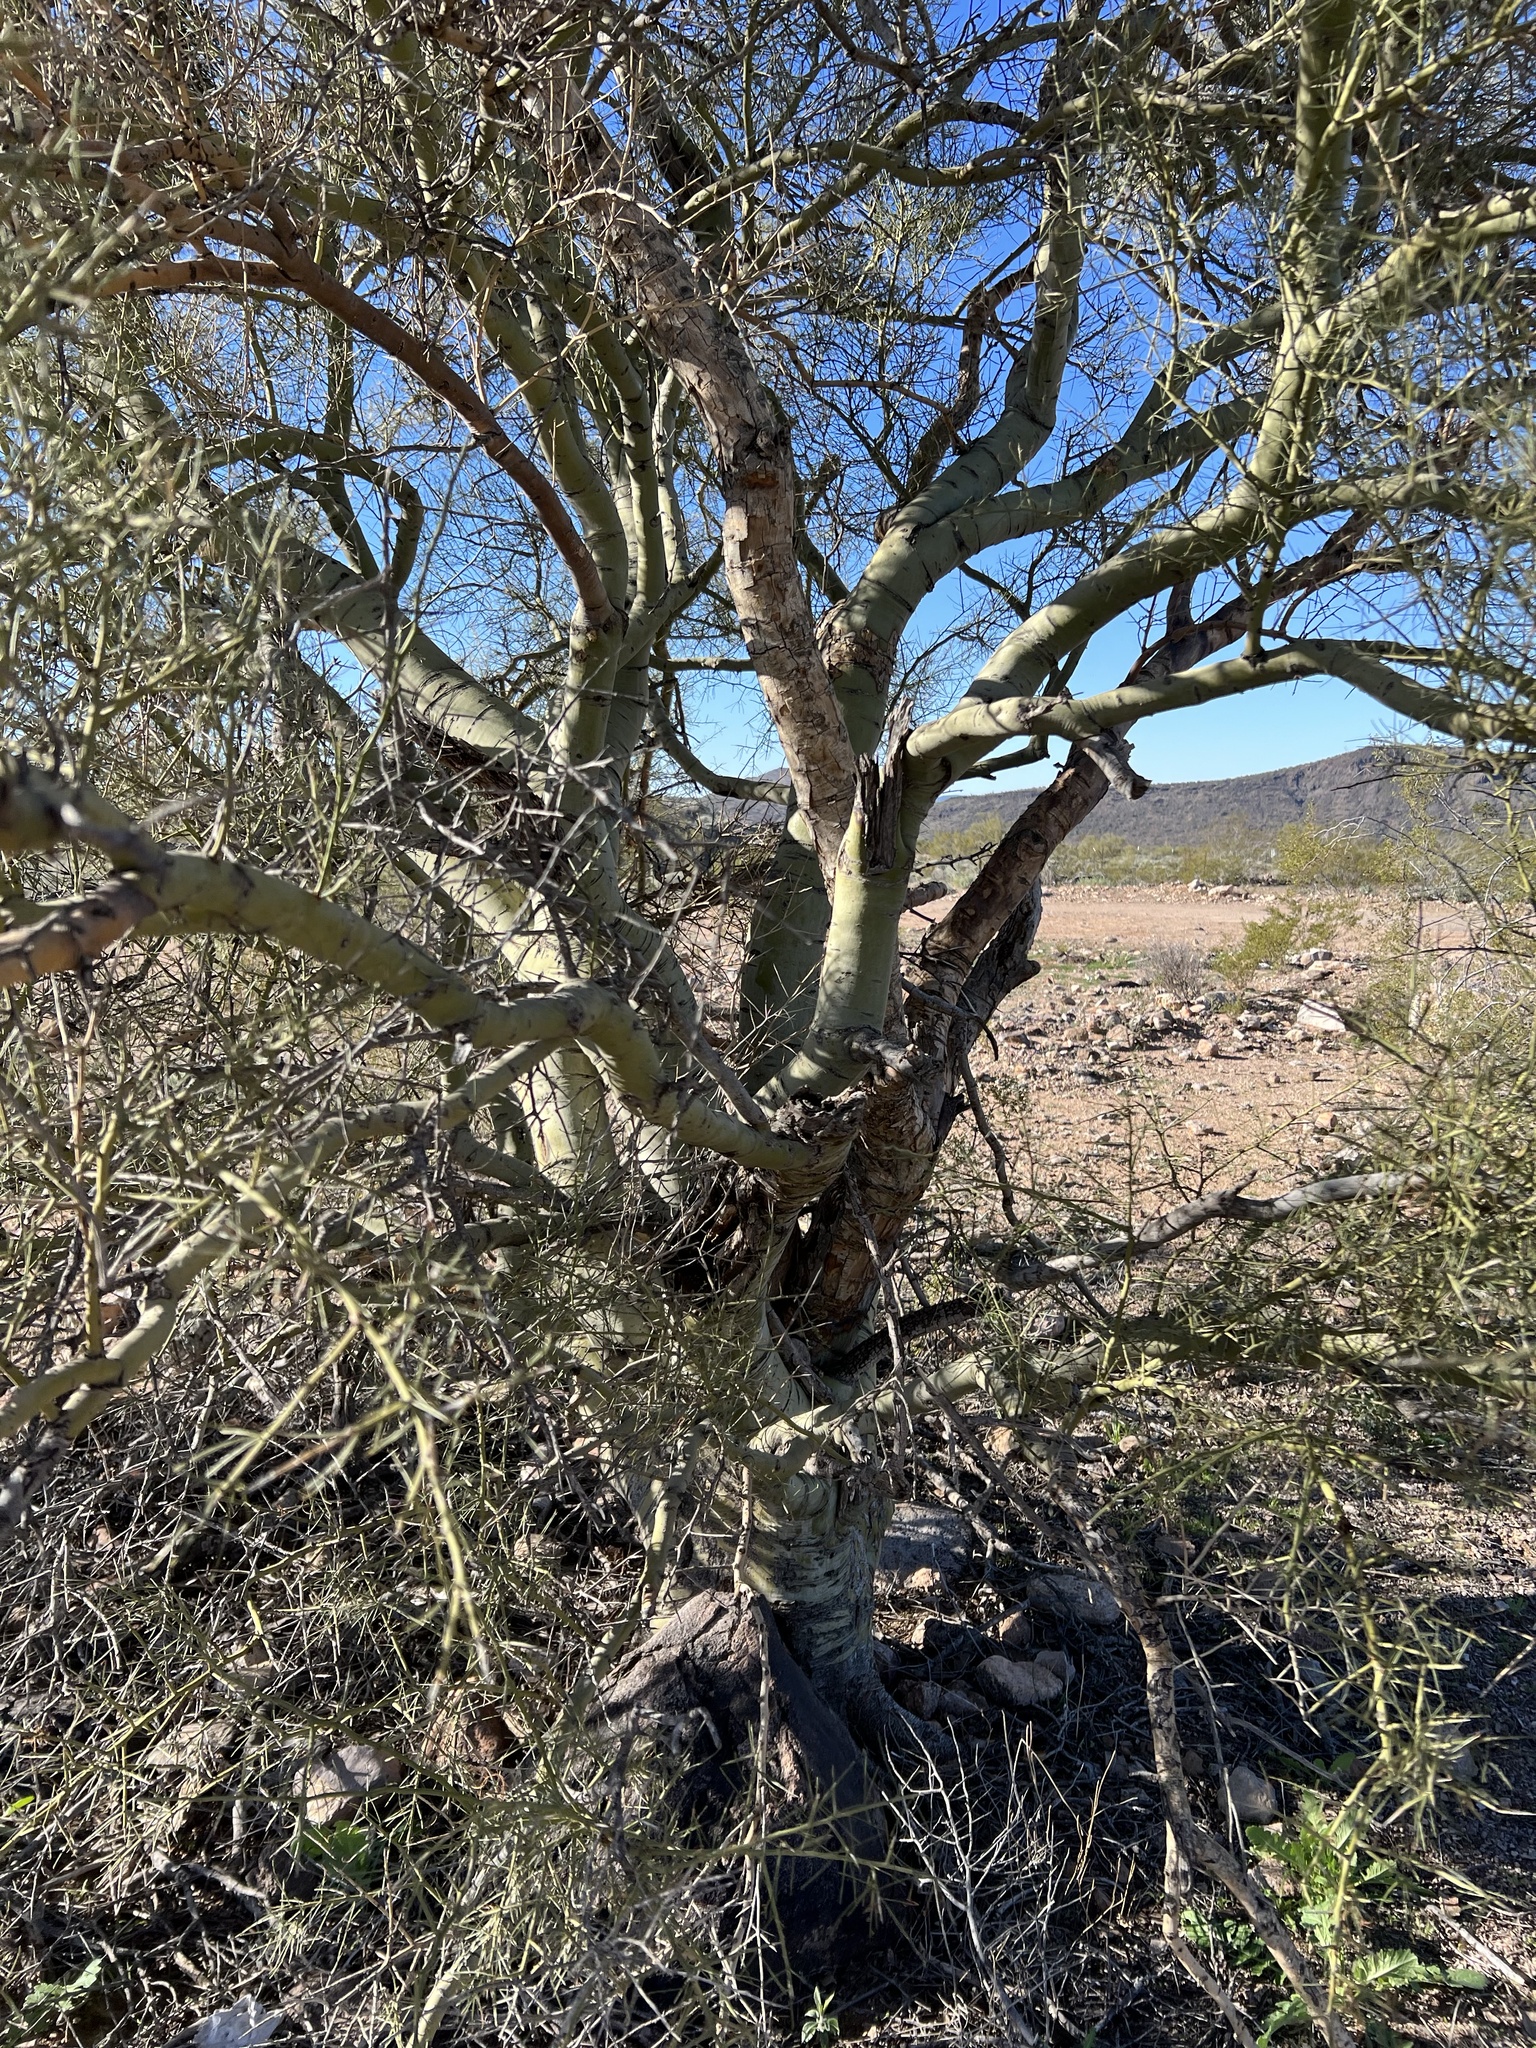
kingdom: Plantae
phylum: Tracheophyta
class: Magnoliopsida
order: Fabales
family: Fabaceae
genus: Parkinsonia
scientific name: Parkinsonia microphylla
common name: Yellow paloverde
